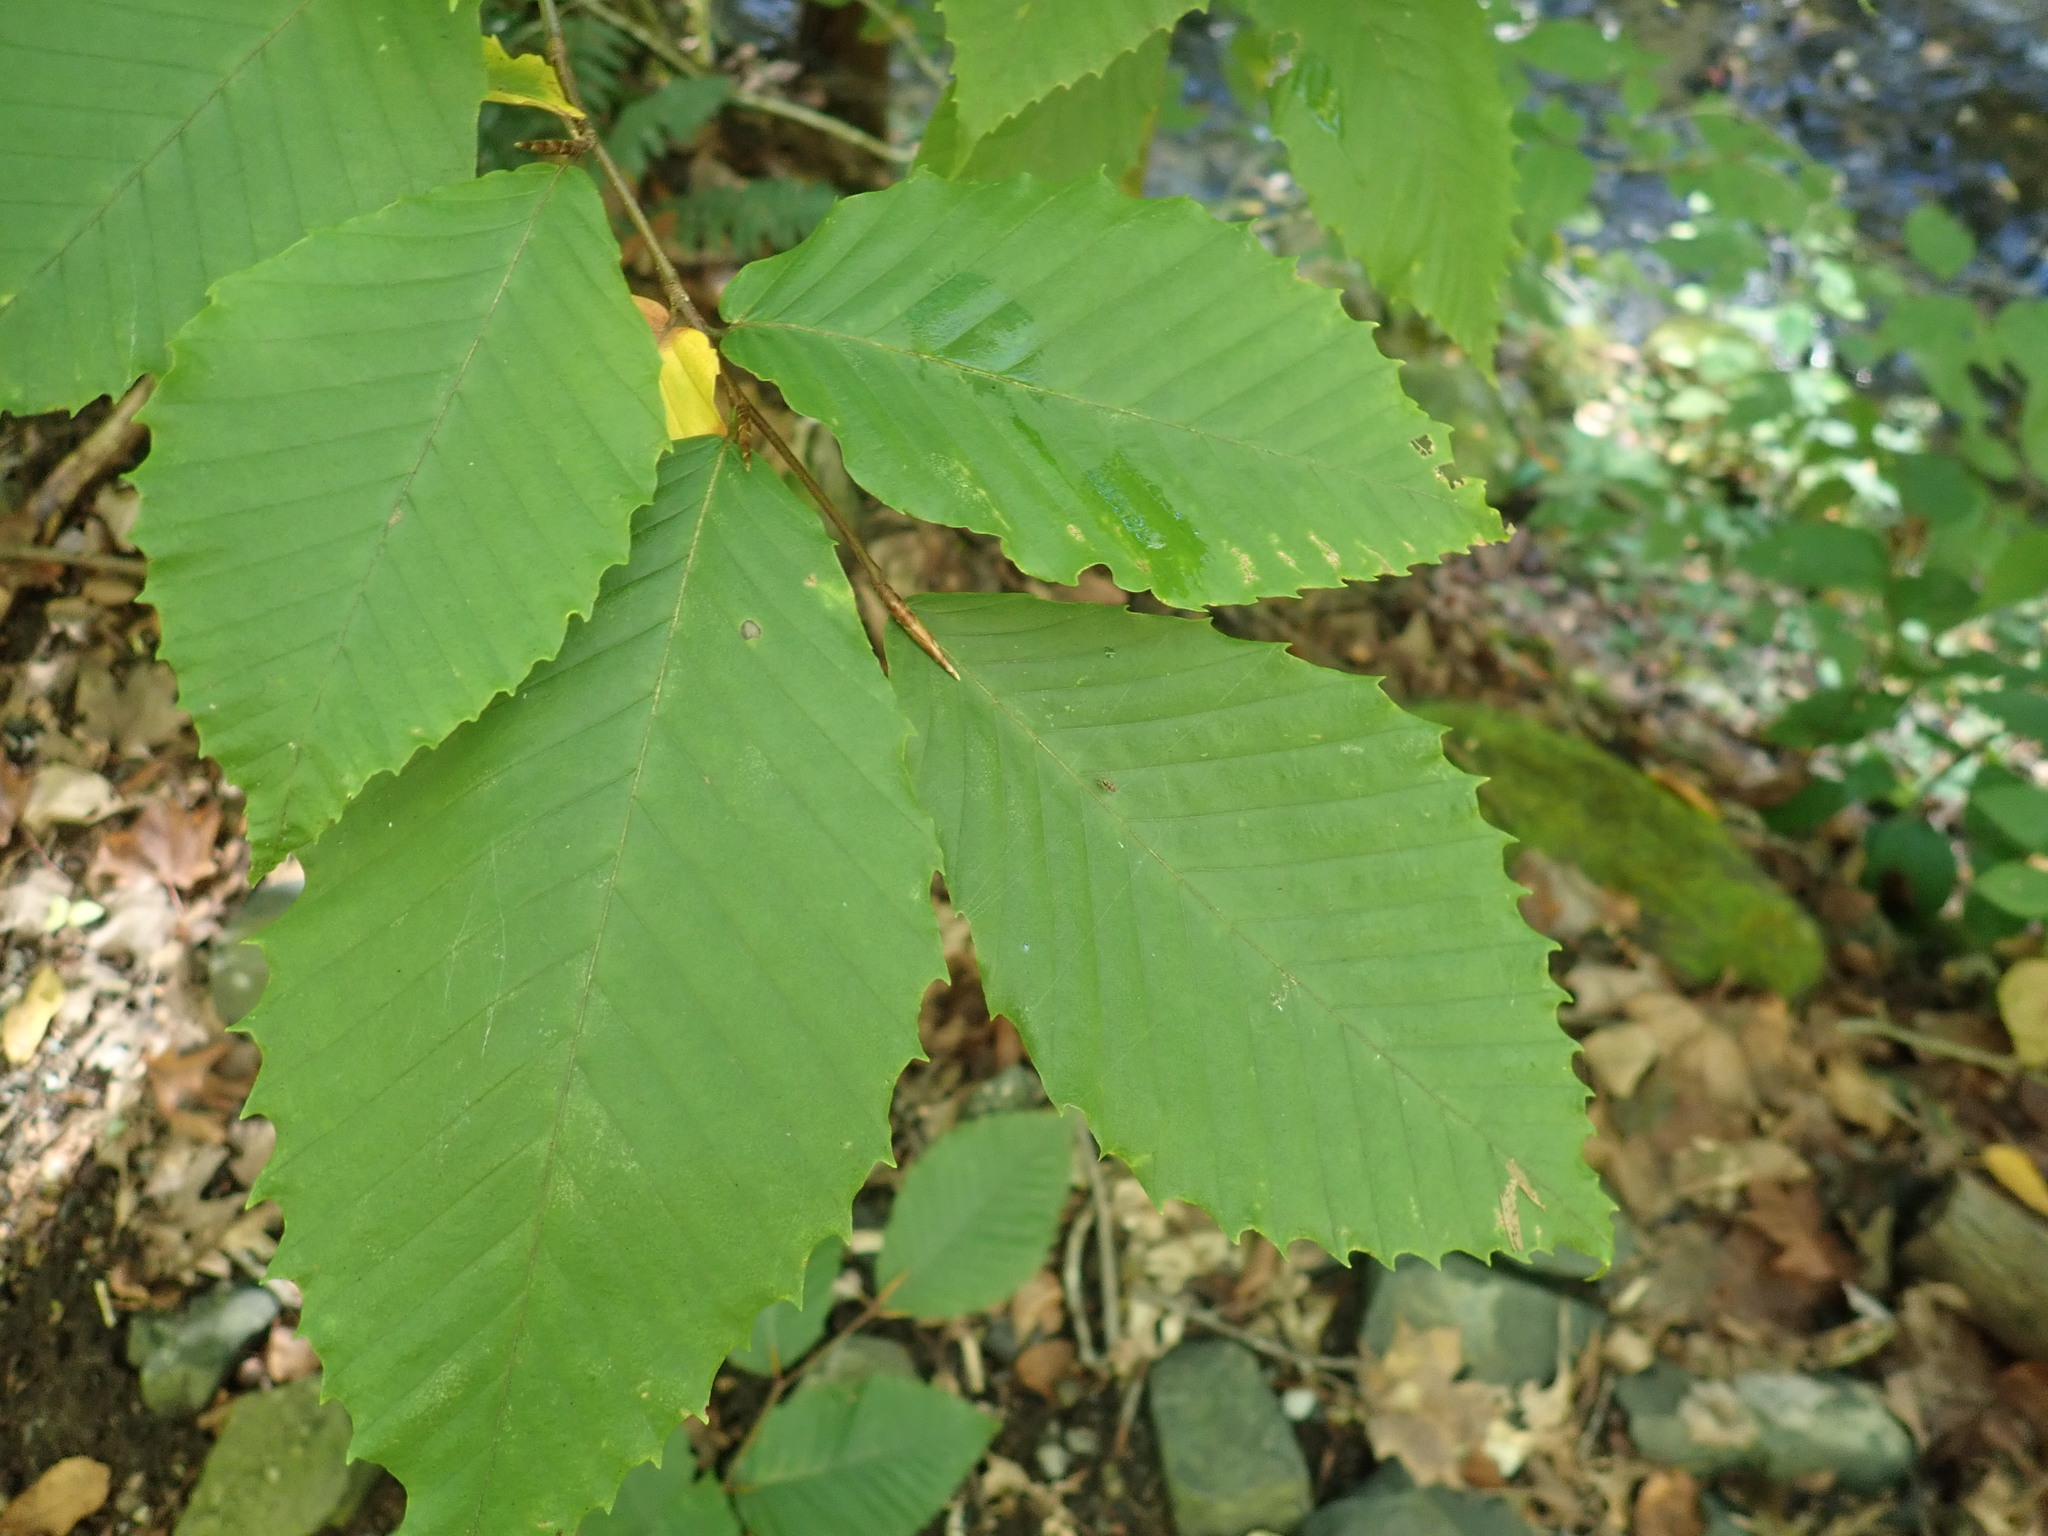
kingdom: Plantae
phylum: Tracheophyta
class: Magnoliopsida
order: Fagales
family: Fagaceae
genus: Fagus
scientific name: Fagus grandifolia
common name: American beech
